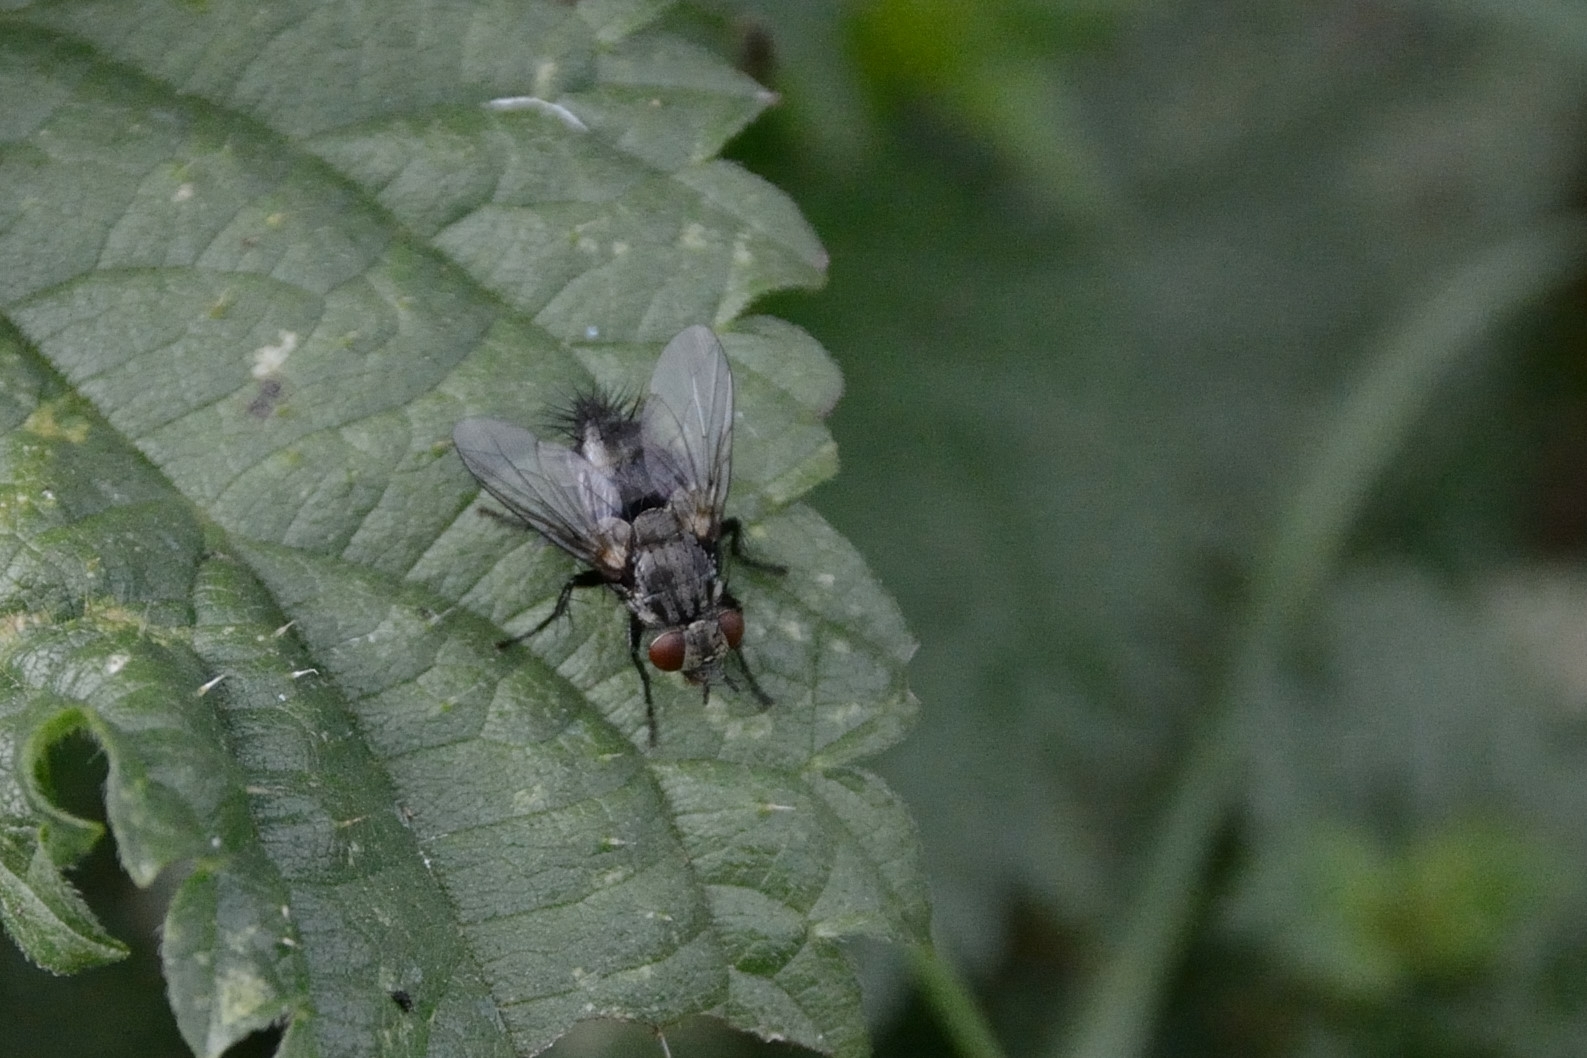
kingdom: Animalia
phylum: Arthropoda
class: Insecta
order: Diptera
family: Tachinidae
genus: Voria
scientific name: Voria ruralis
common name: Parasitic fly
